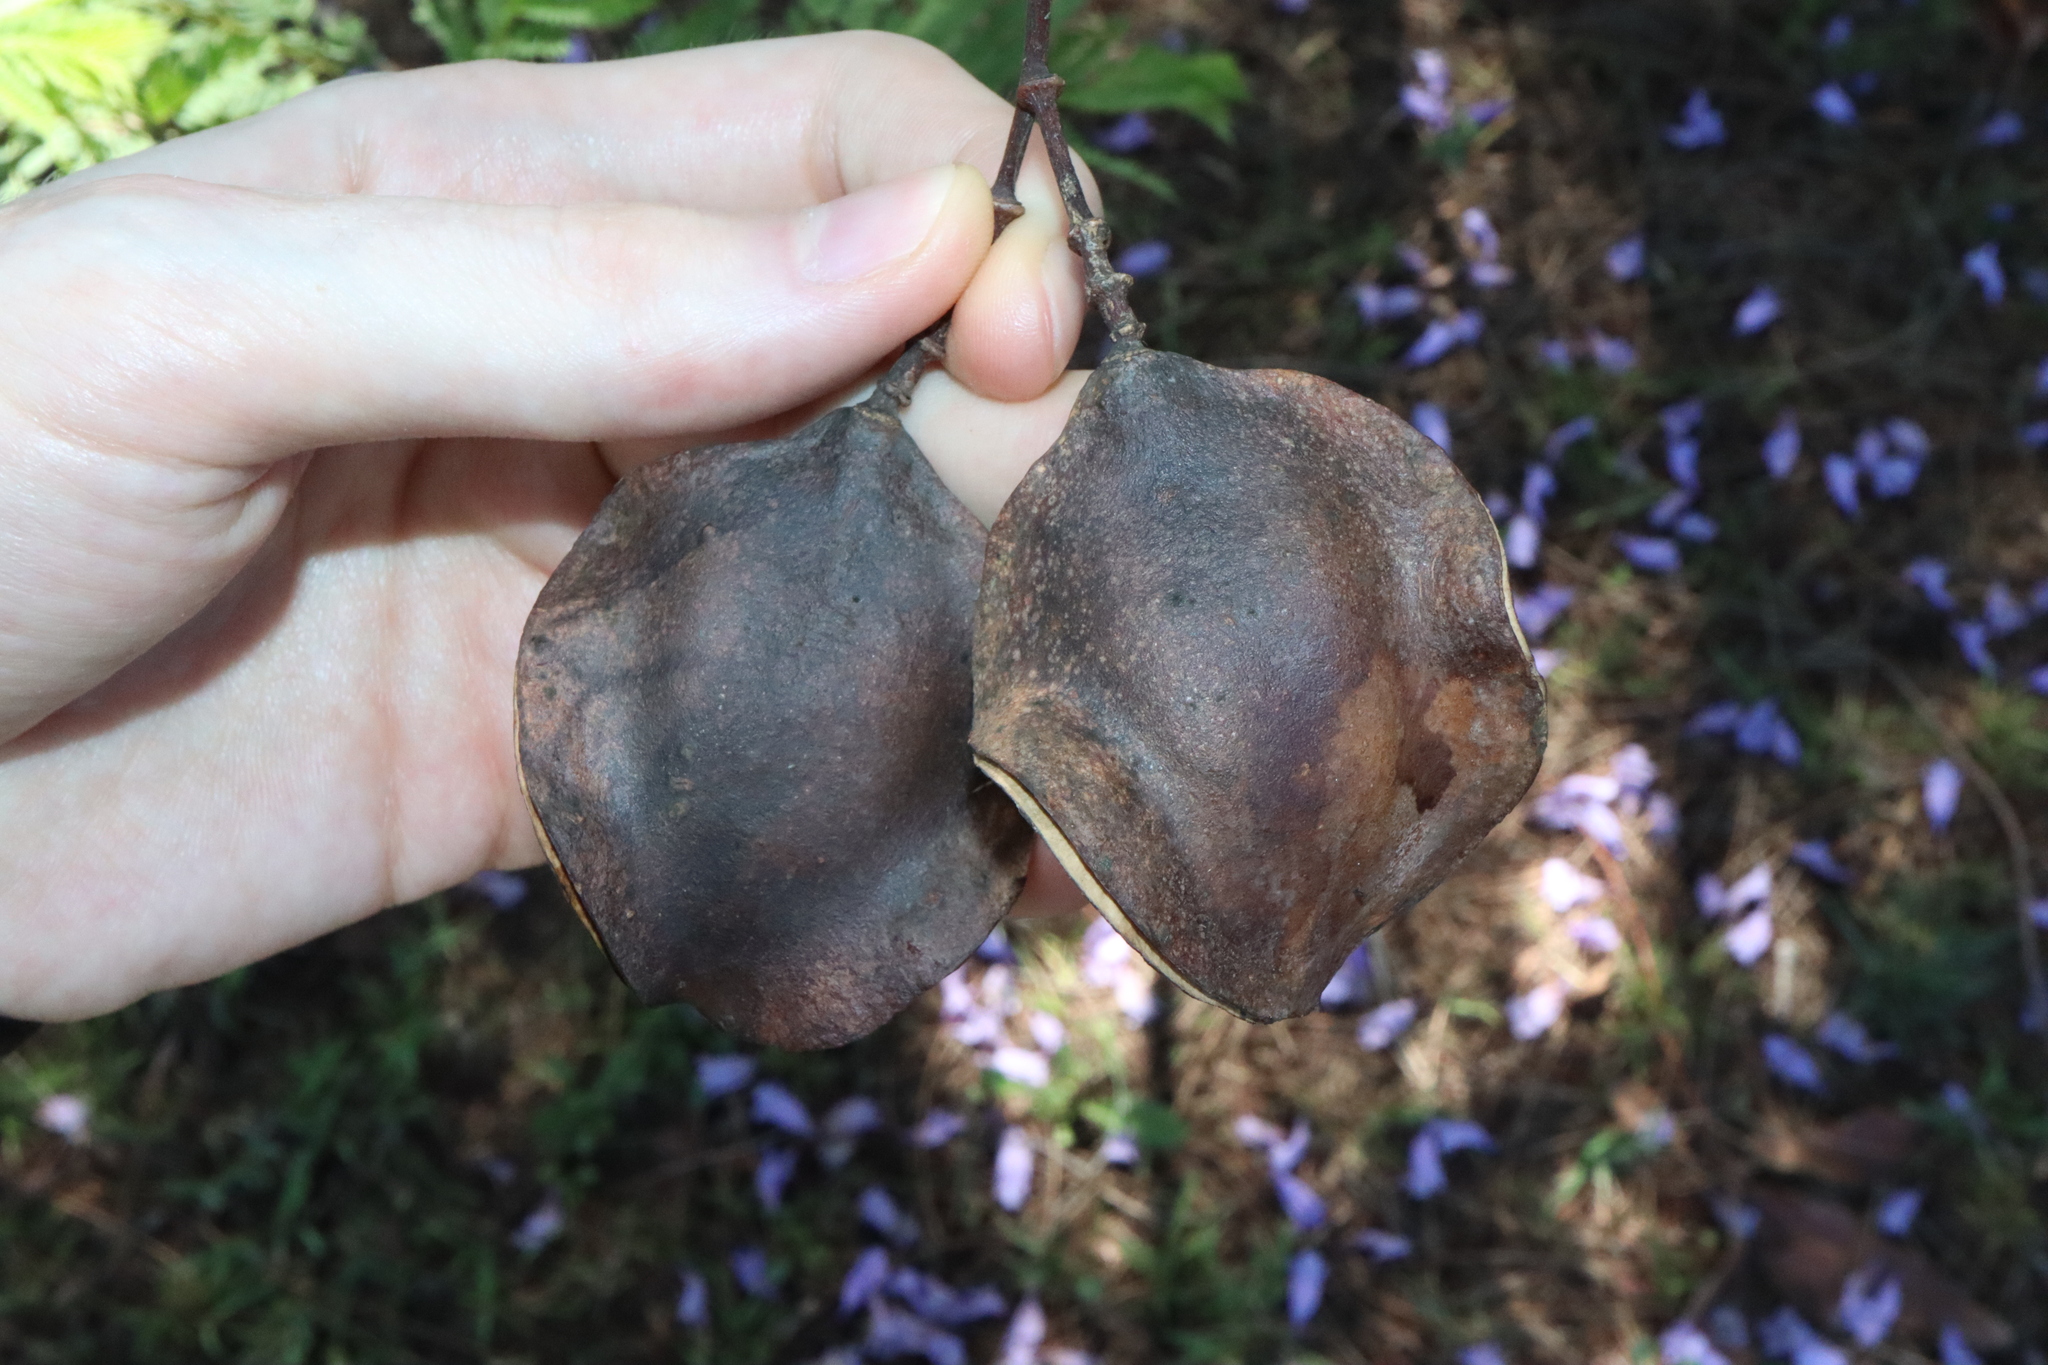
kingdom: Plantae
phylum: Tracheophyta
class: Magnoliopsida
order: Lamiales
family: Bignoniaceae
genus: Jacaranda
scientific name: Jacaranda mimosifolia
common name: Black poui
